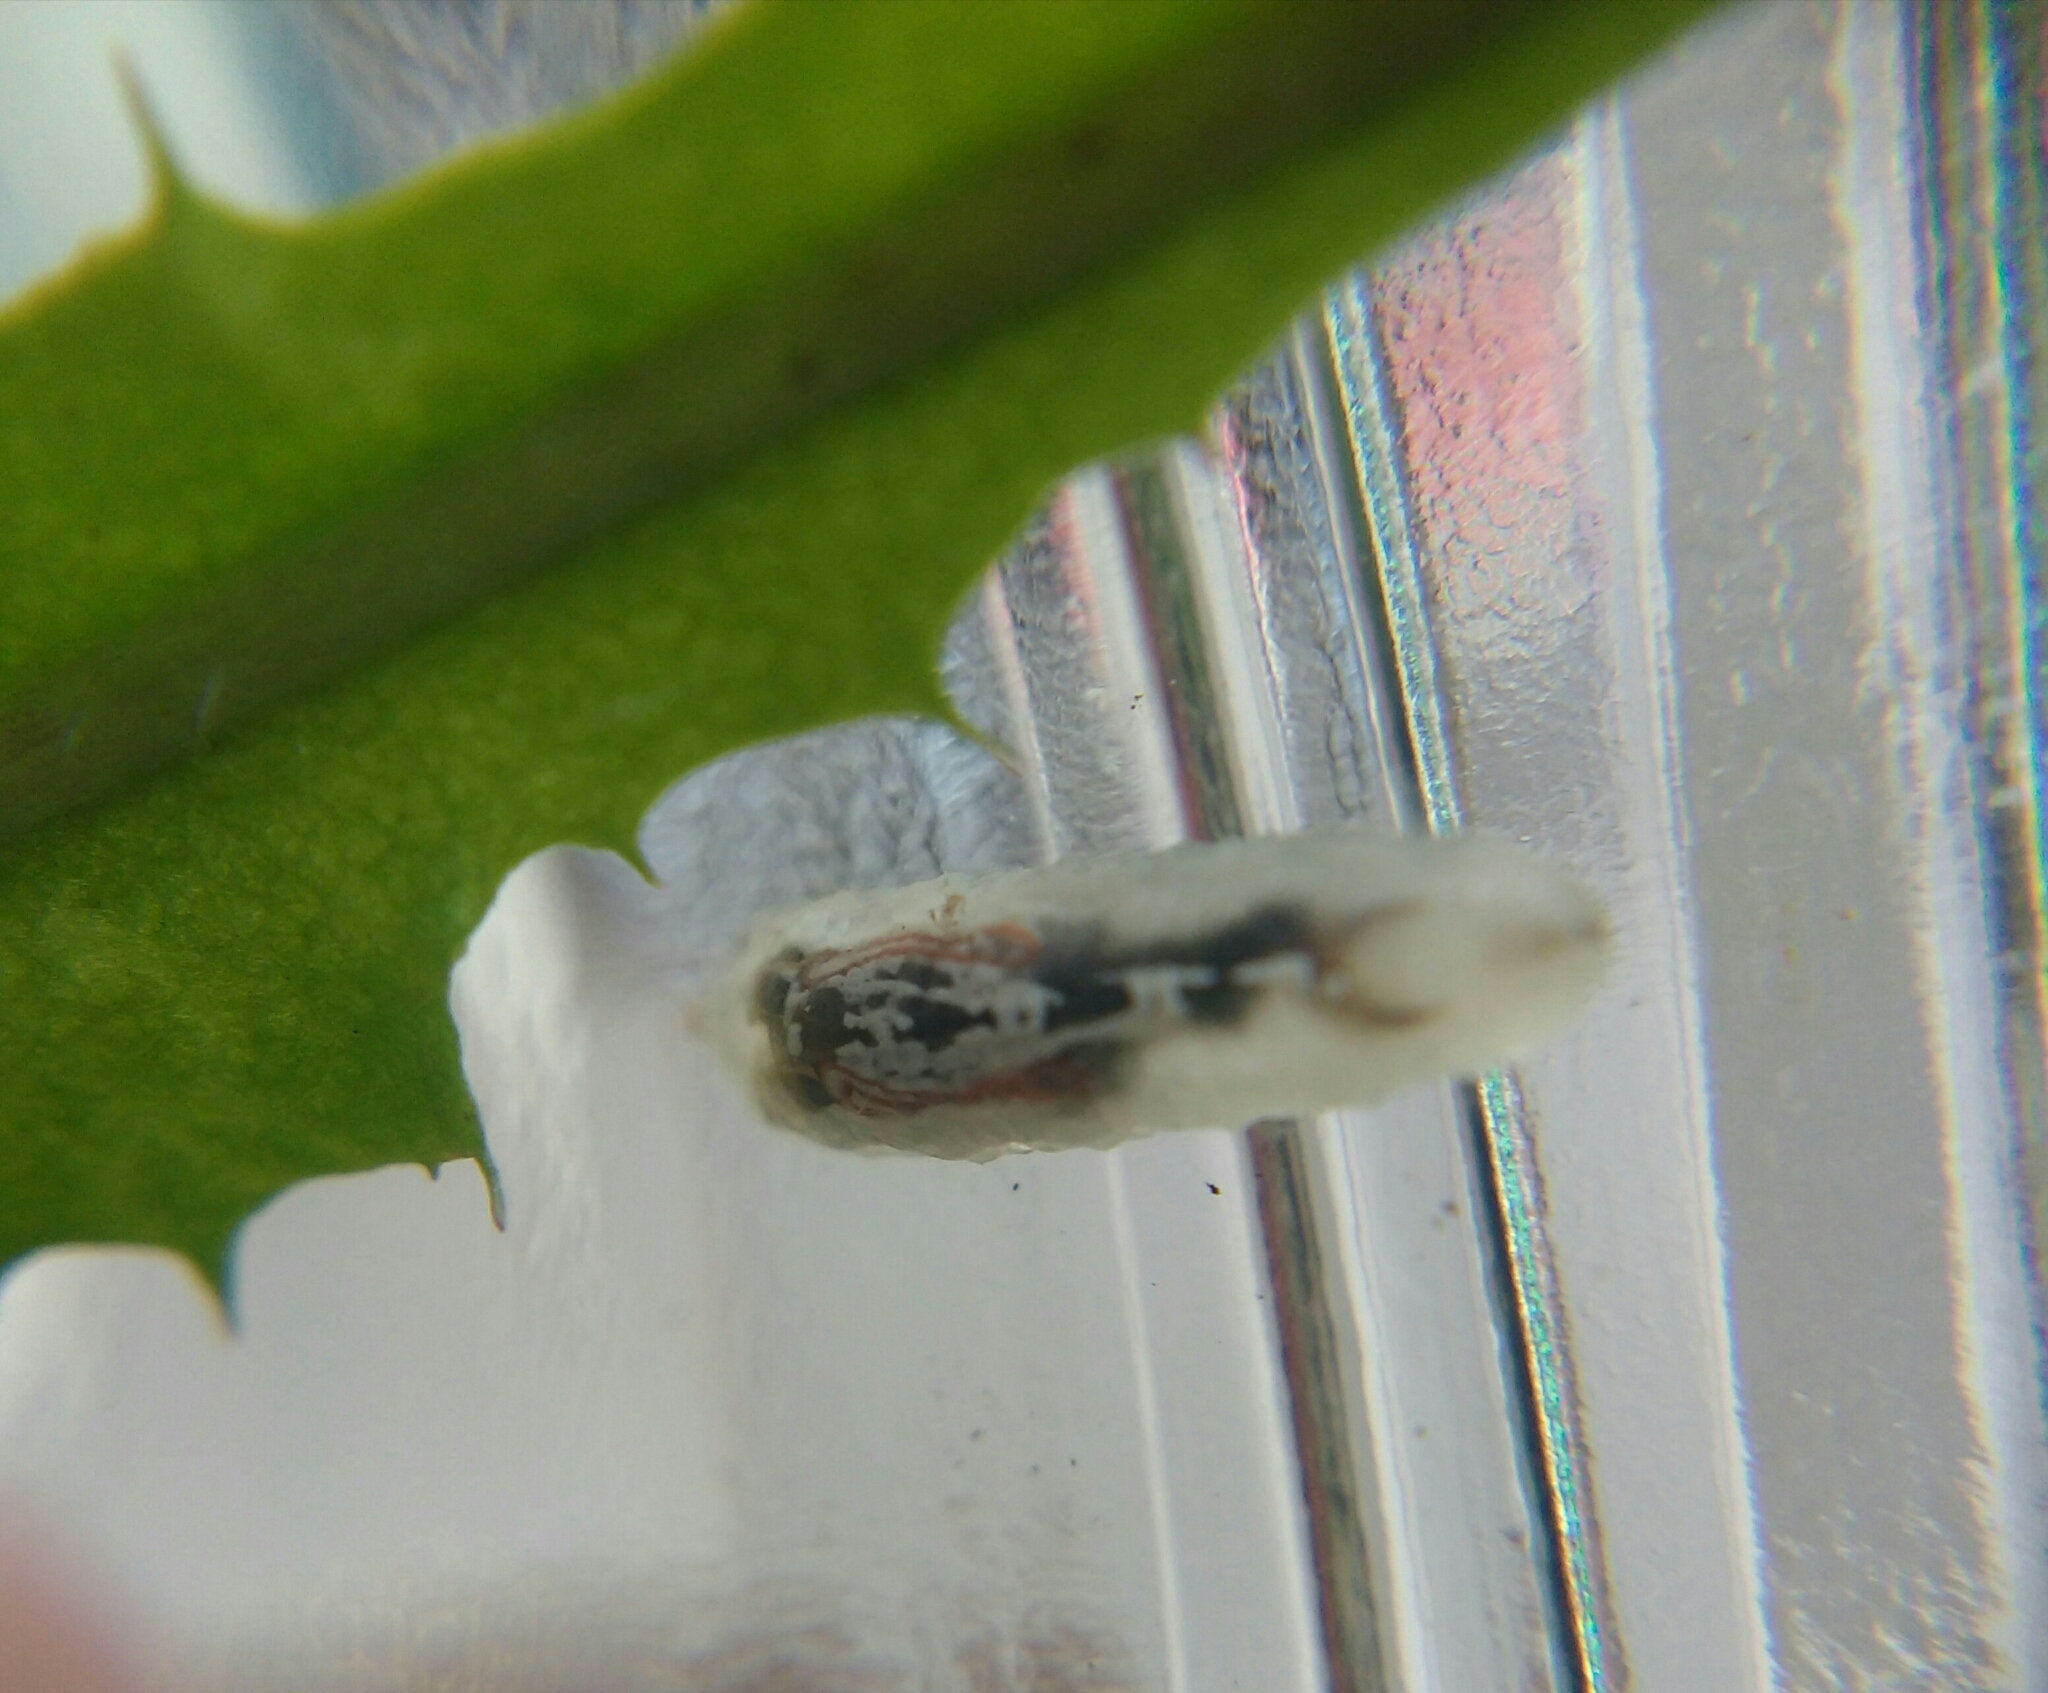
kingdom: Animalia
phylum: Arthropoda
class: Insecta
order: Diptera
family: Syrphidae
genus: Episyrphus
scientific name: Episyrphus balteatus
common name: Marmalade hoverfly
